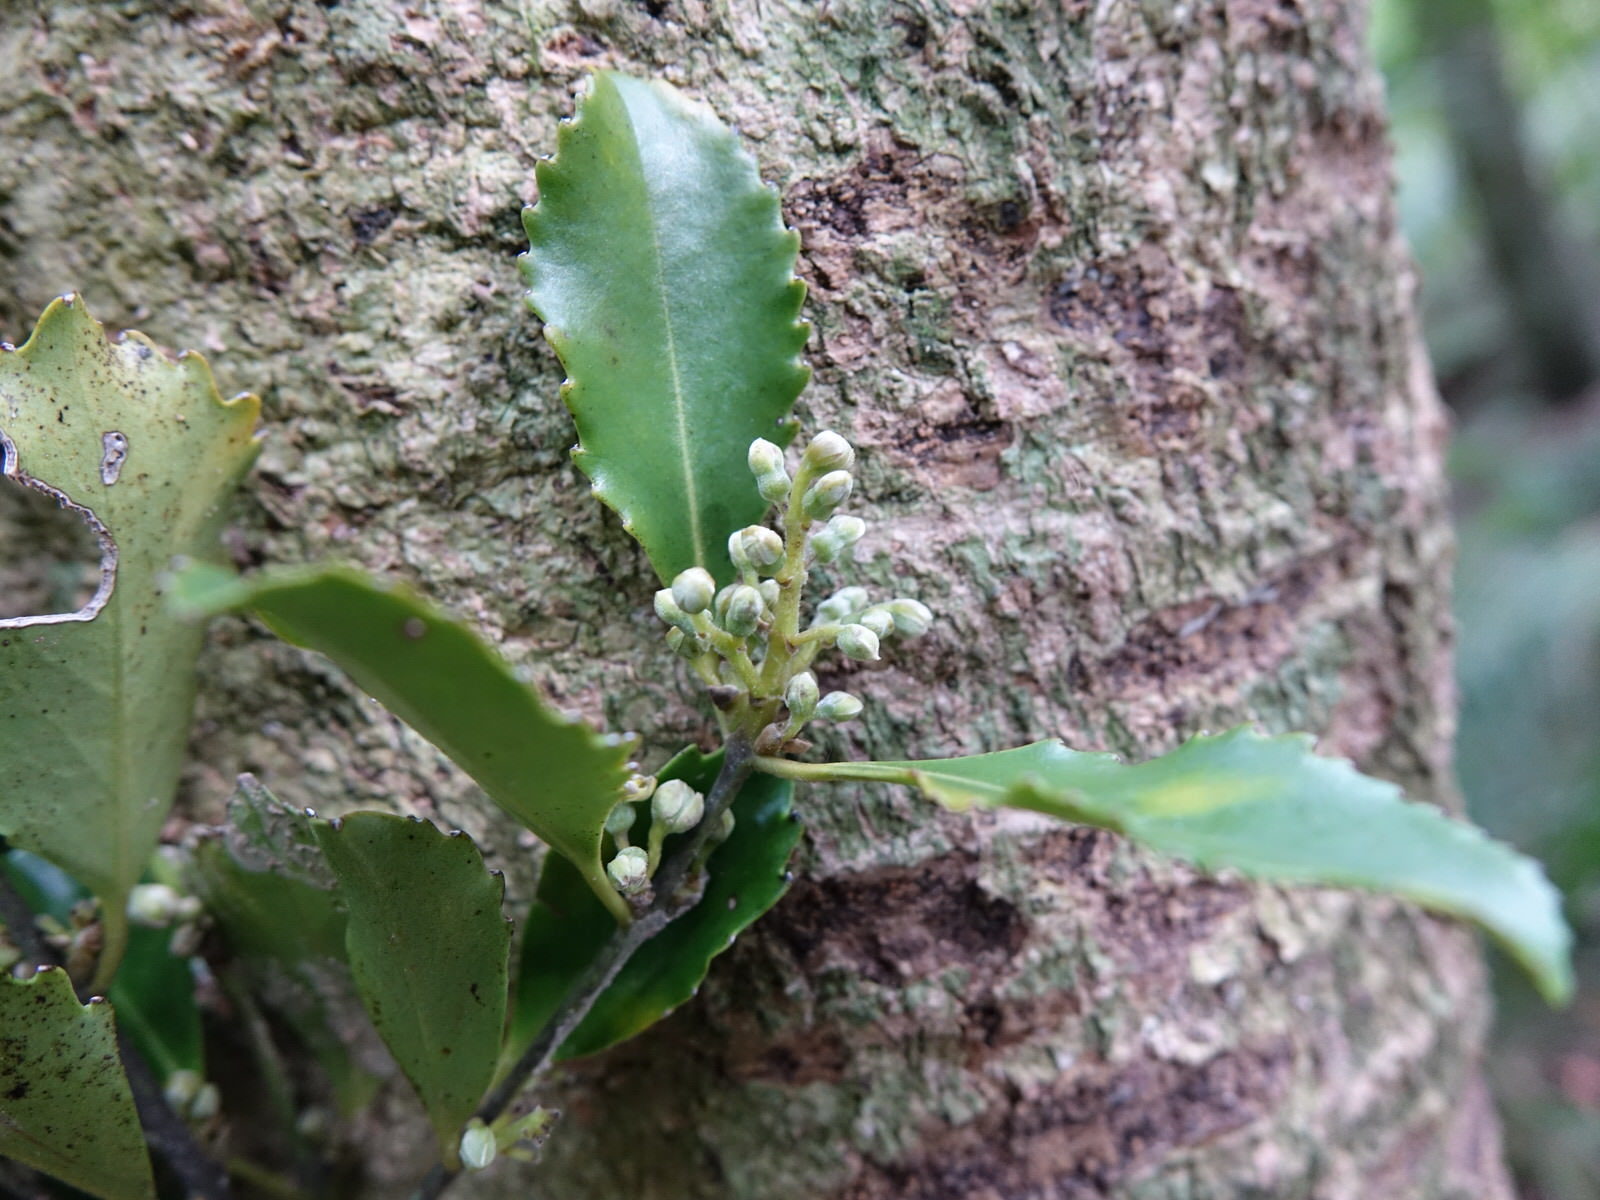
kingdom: Plantae
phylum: Tracheophyta
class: Magnoliopsida
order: Laurales
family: Atherospermataceae
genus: Laurelia
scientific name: Laurelia novae-zelandiae
